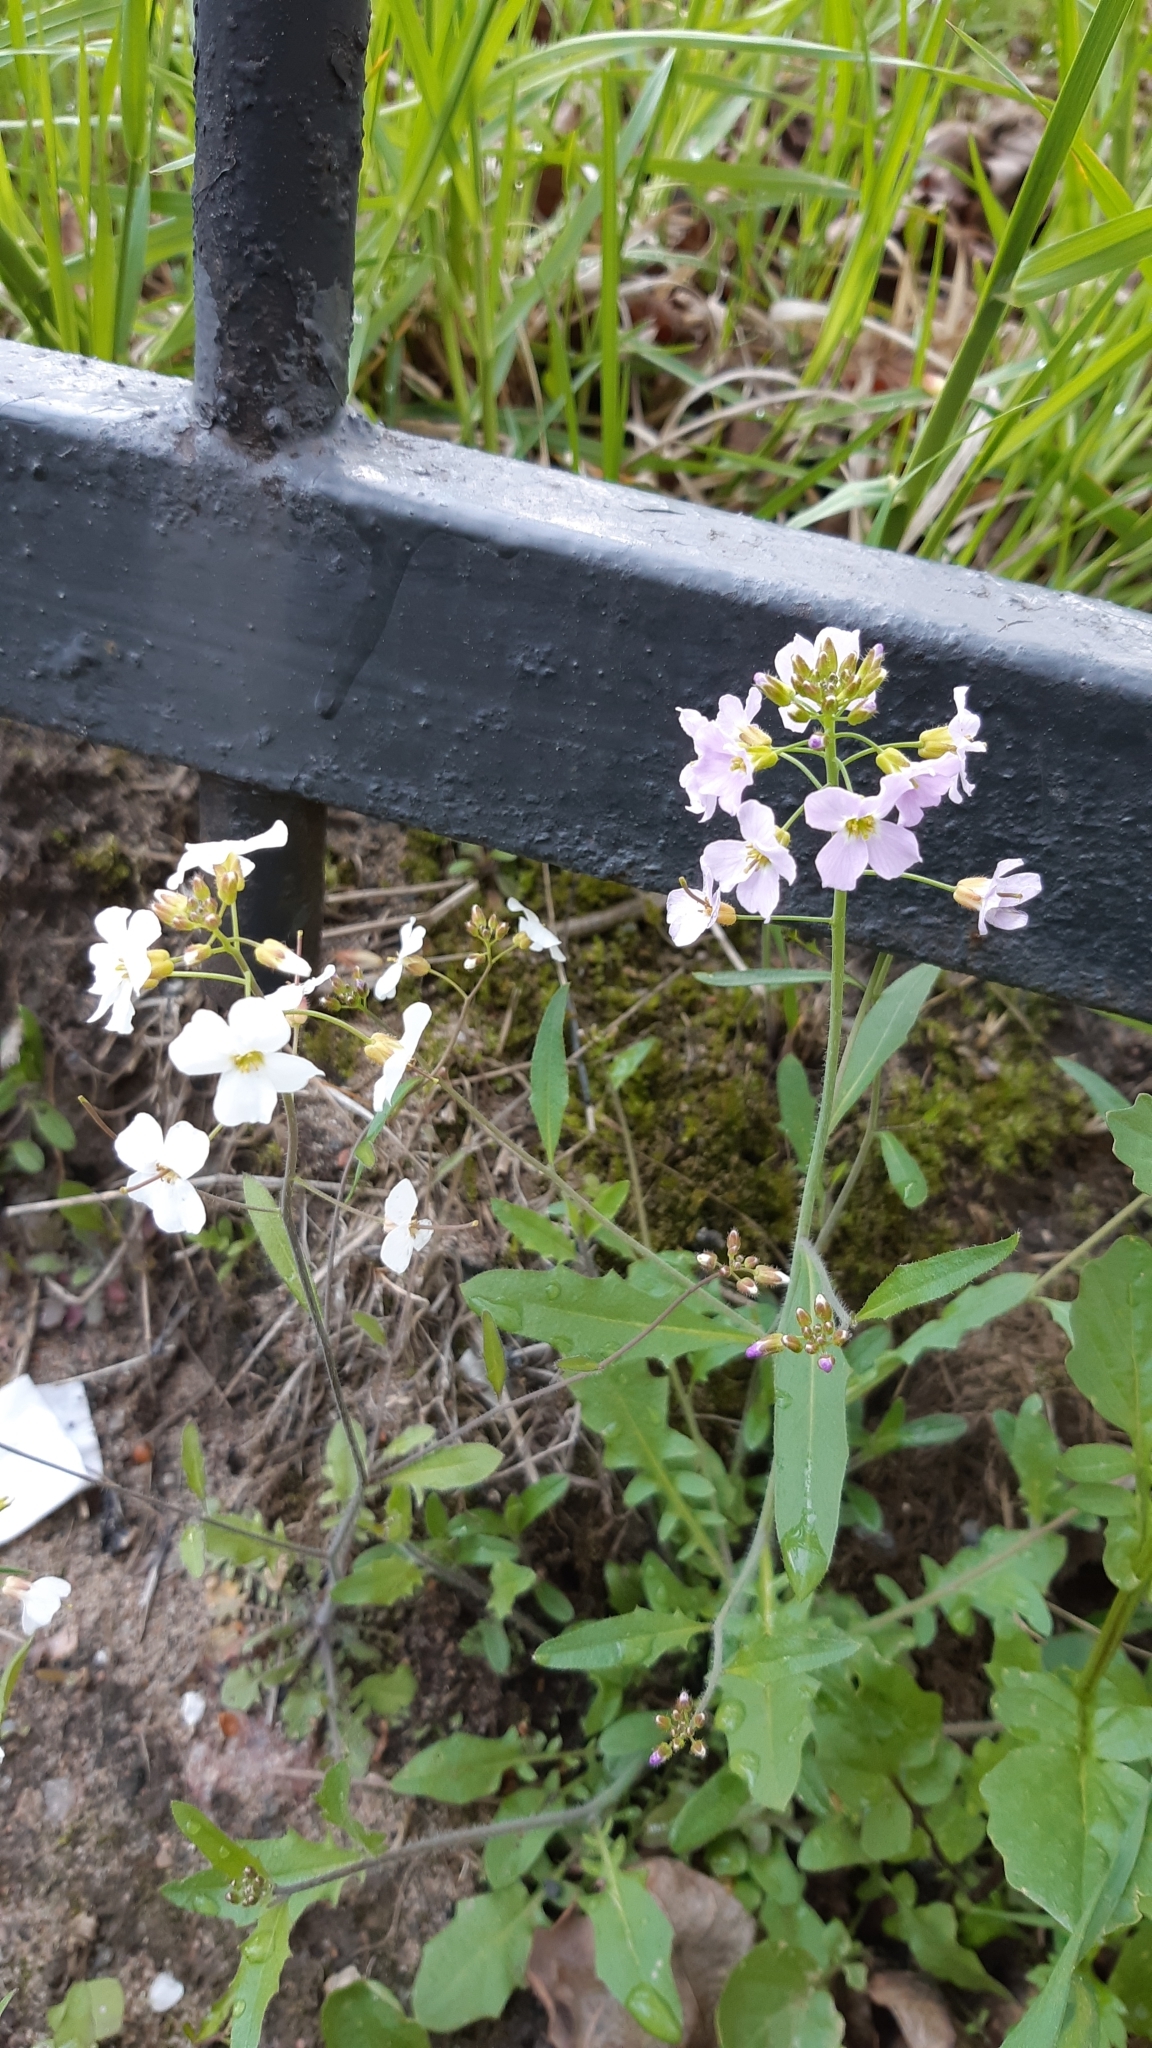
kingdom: Plantae
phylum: Tracheophyta
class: Magnoliopsida
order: Brassicales
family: Brassicaceae
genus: Arabidopsis
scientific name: Arabidopsis arenosa
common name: Sand rock-cress
